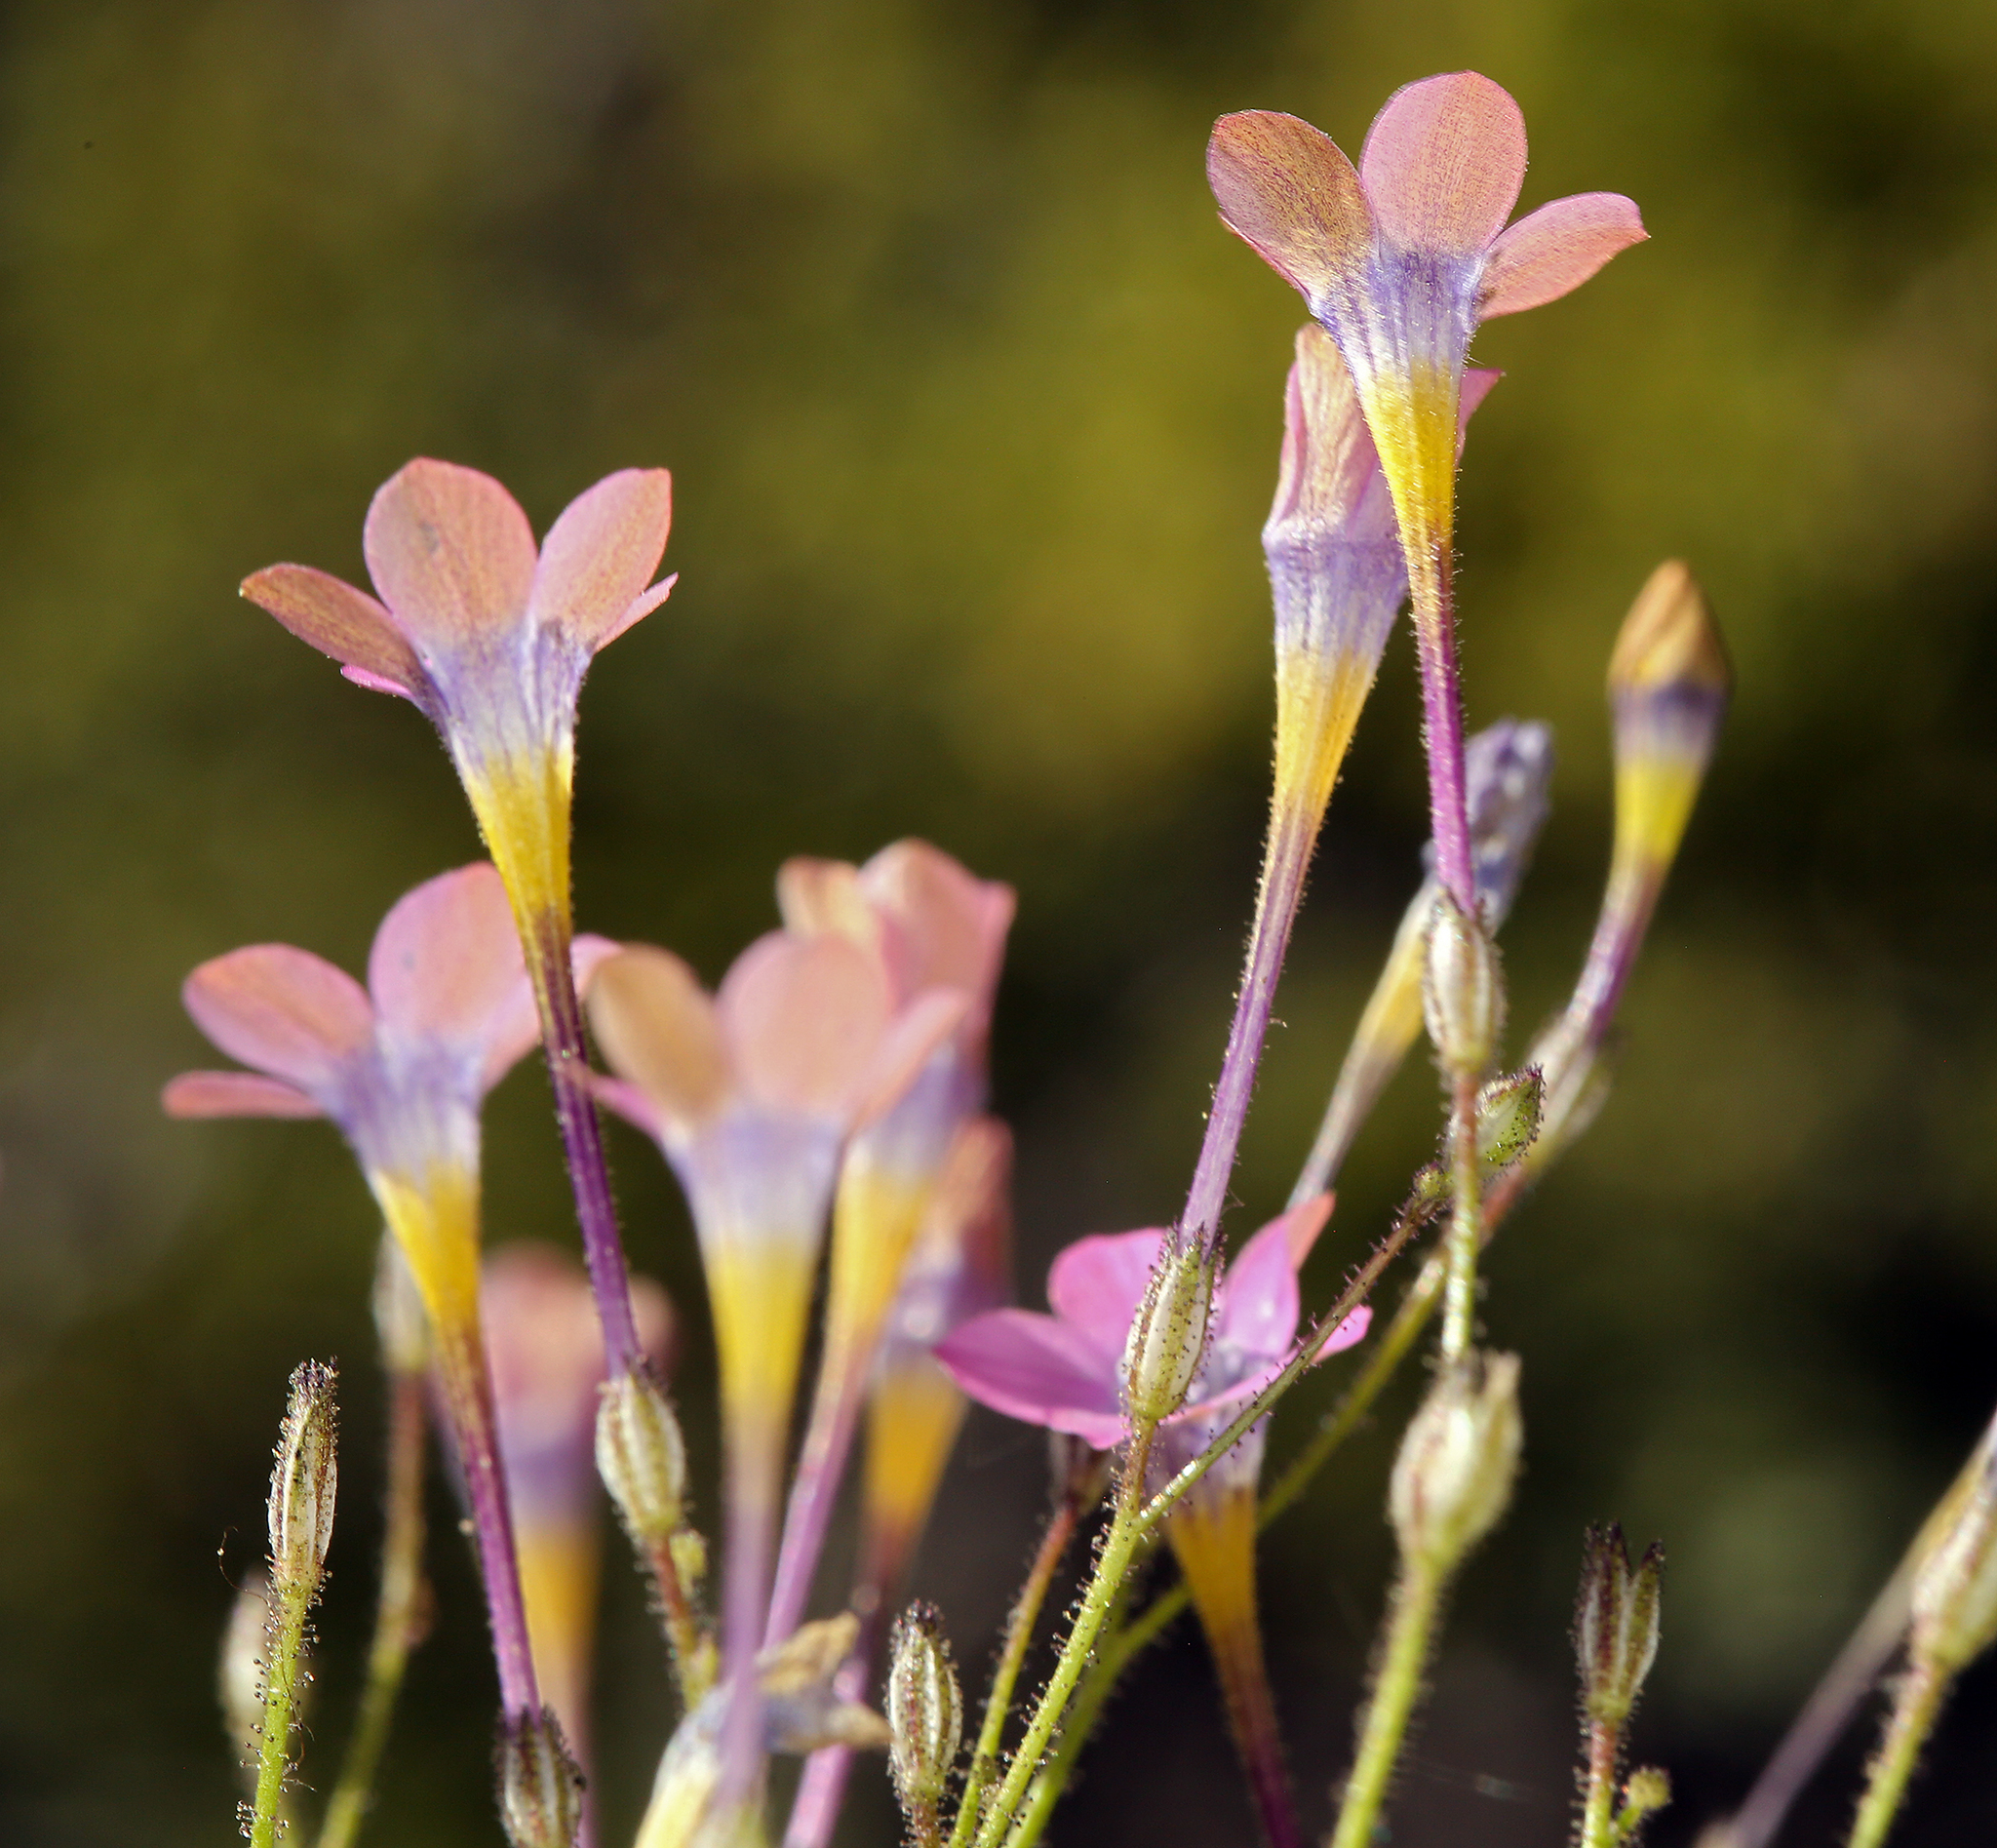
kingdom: Plantae
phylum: Tracheophyta
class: Magnoliopsida
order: Ericales
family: Polemoniaceae
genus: Gilia
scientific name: Gilia cana
